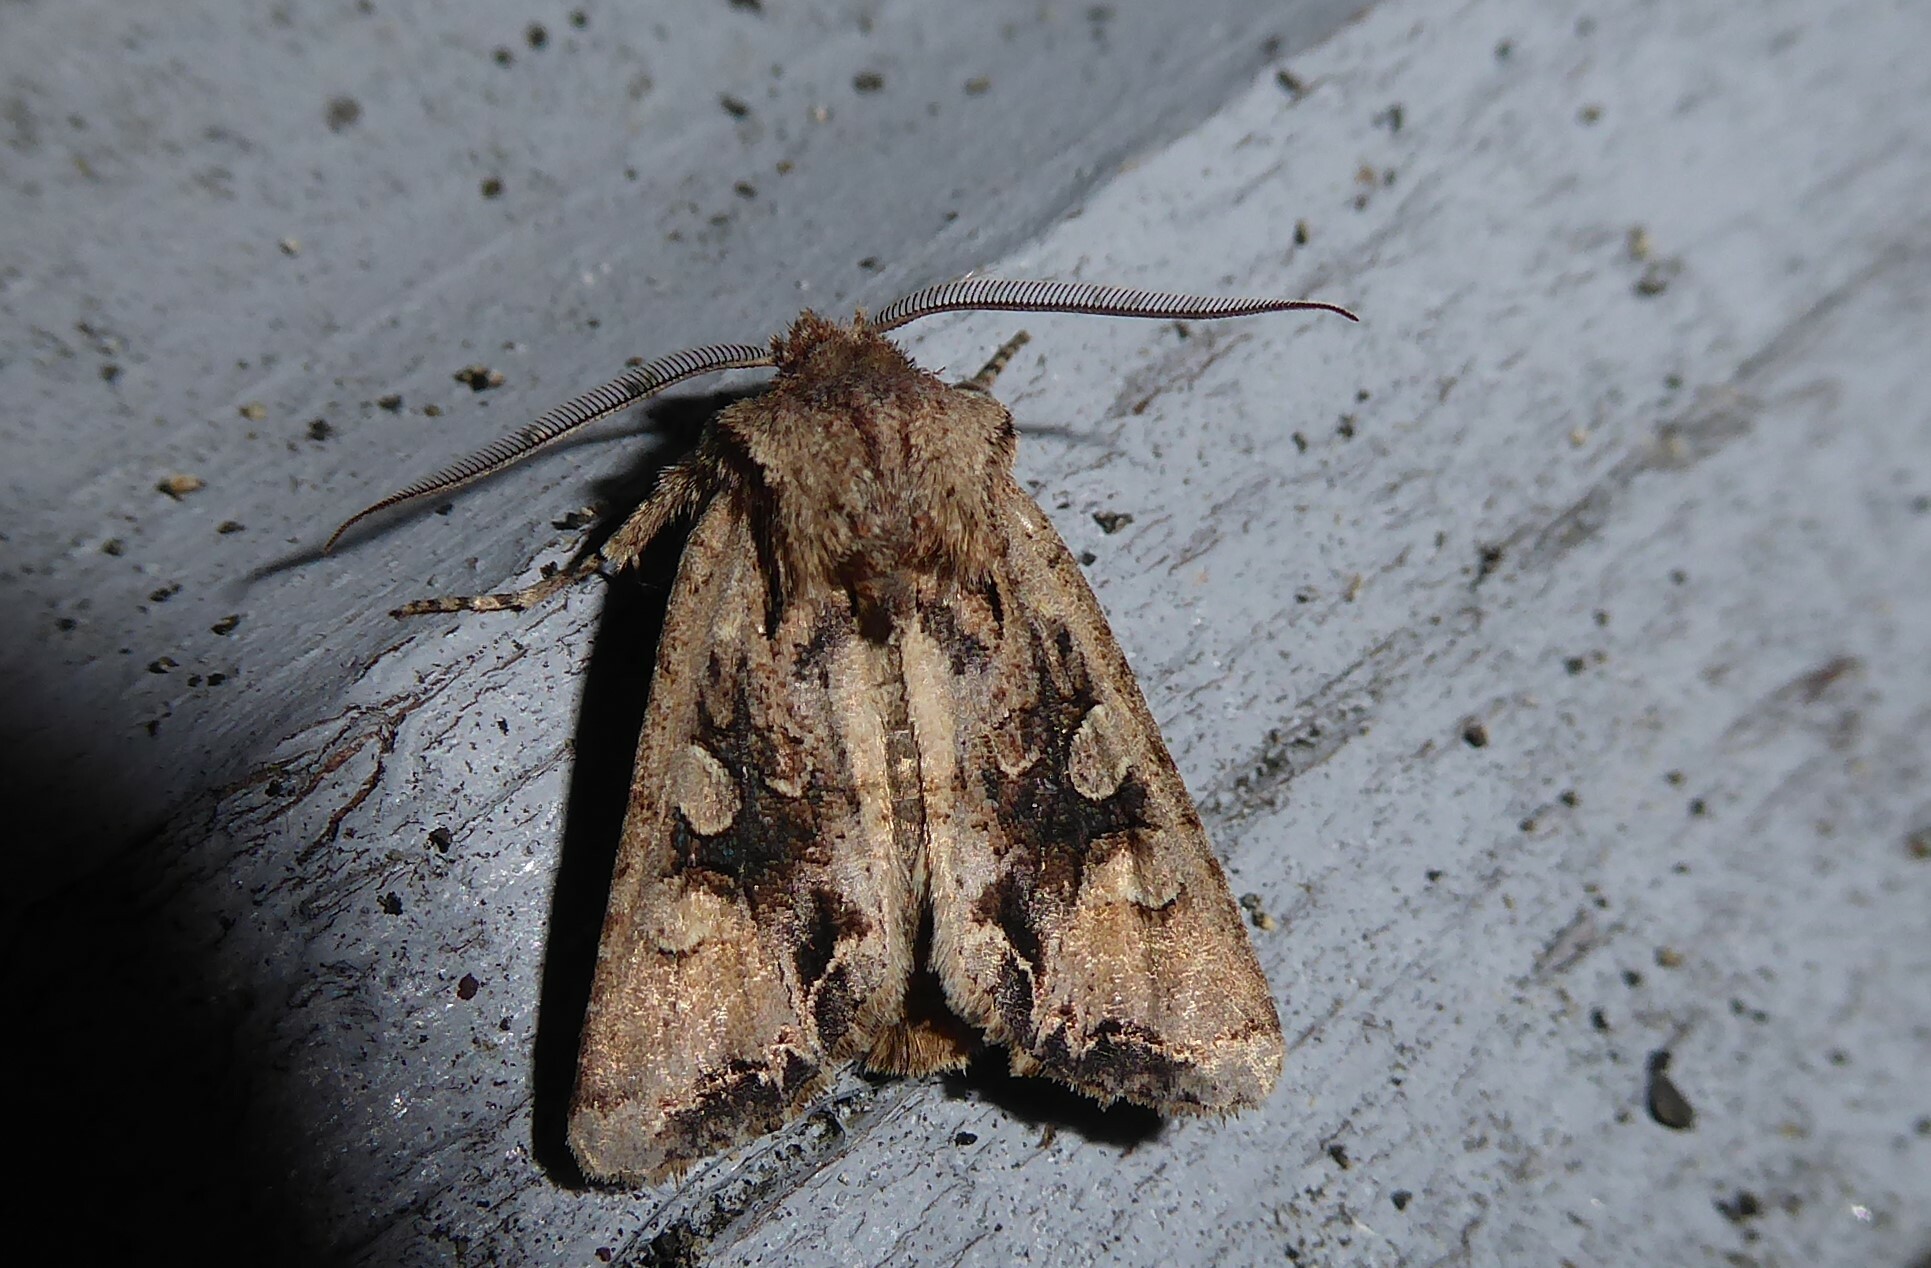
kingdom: Animalia
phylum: Arthropoda
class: Insecta
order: Lepidoptera
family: Noctuidae
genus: Ichneutica
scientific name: Ichneutica
